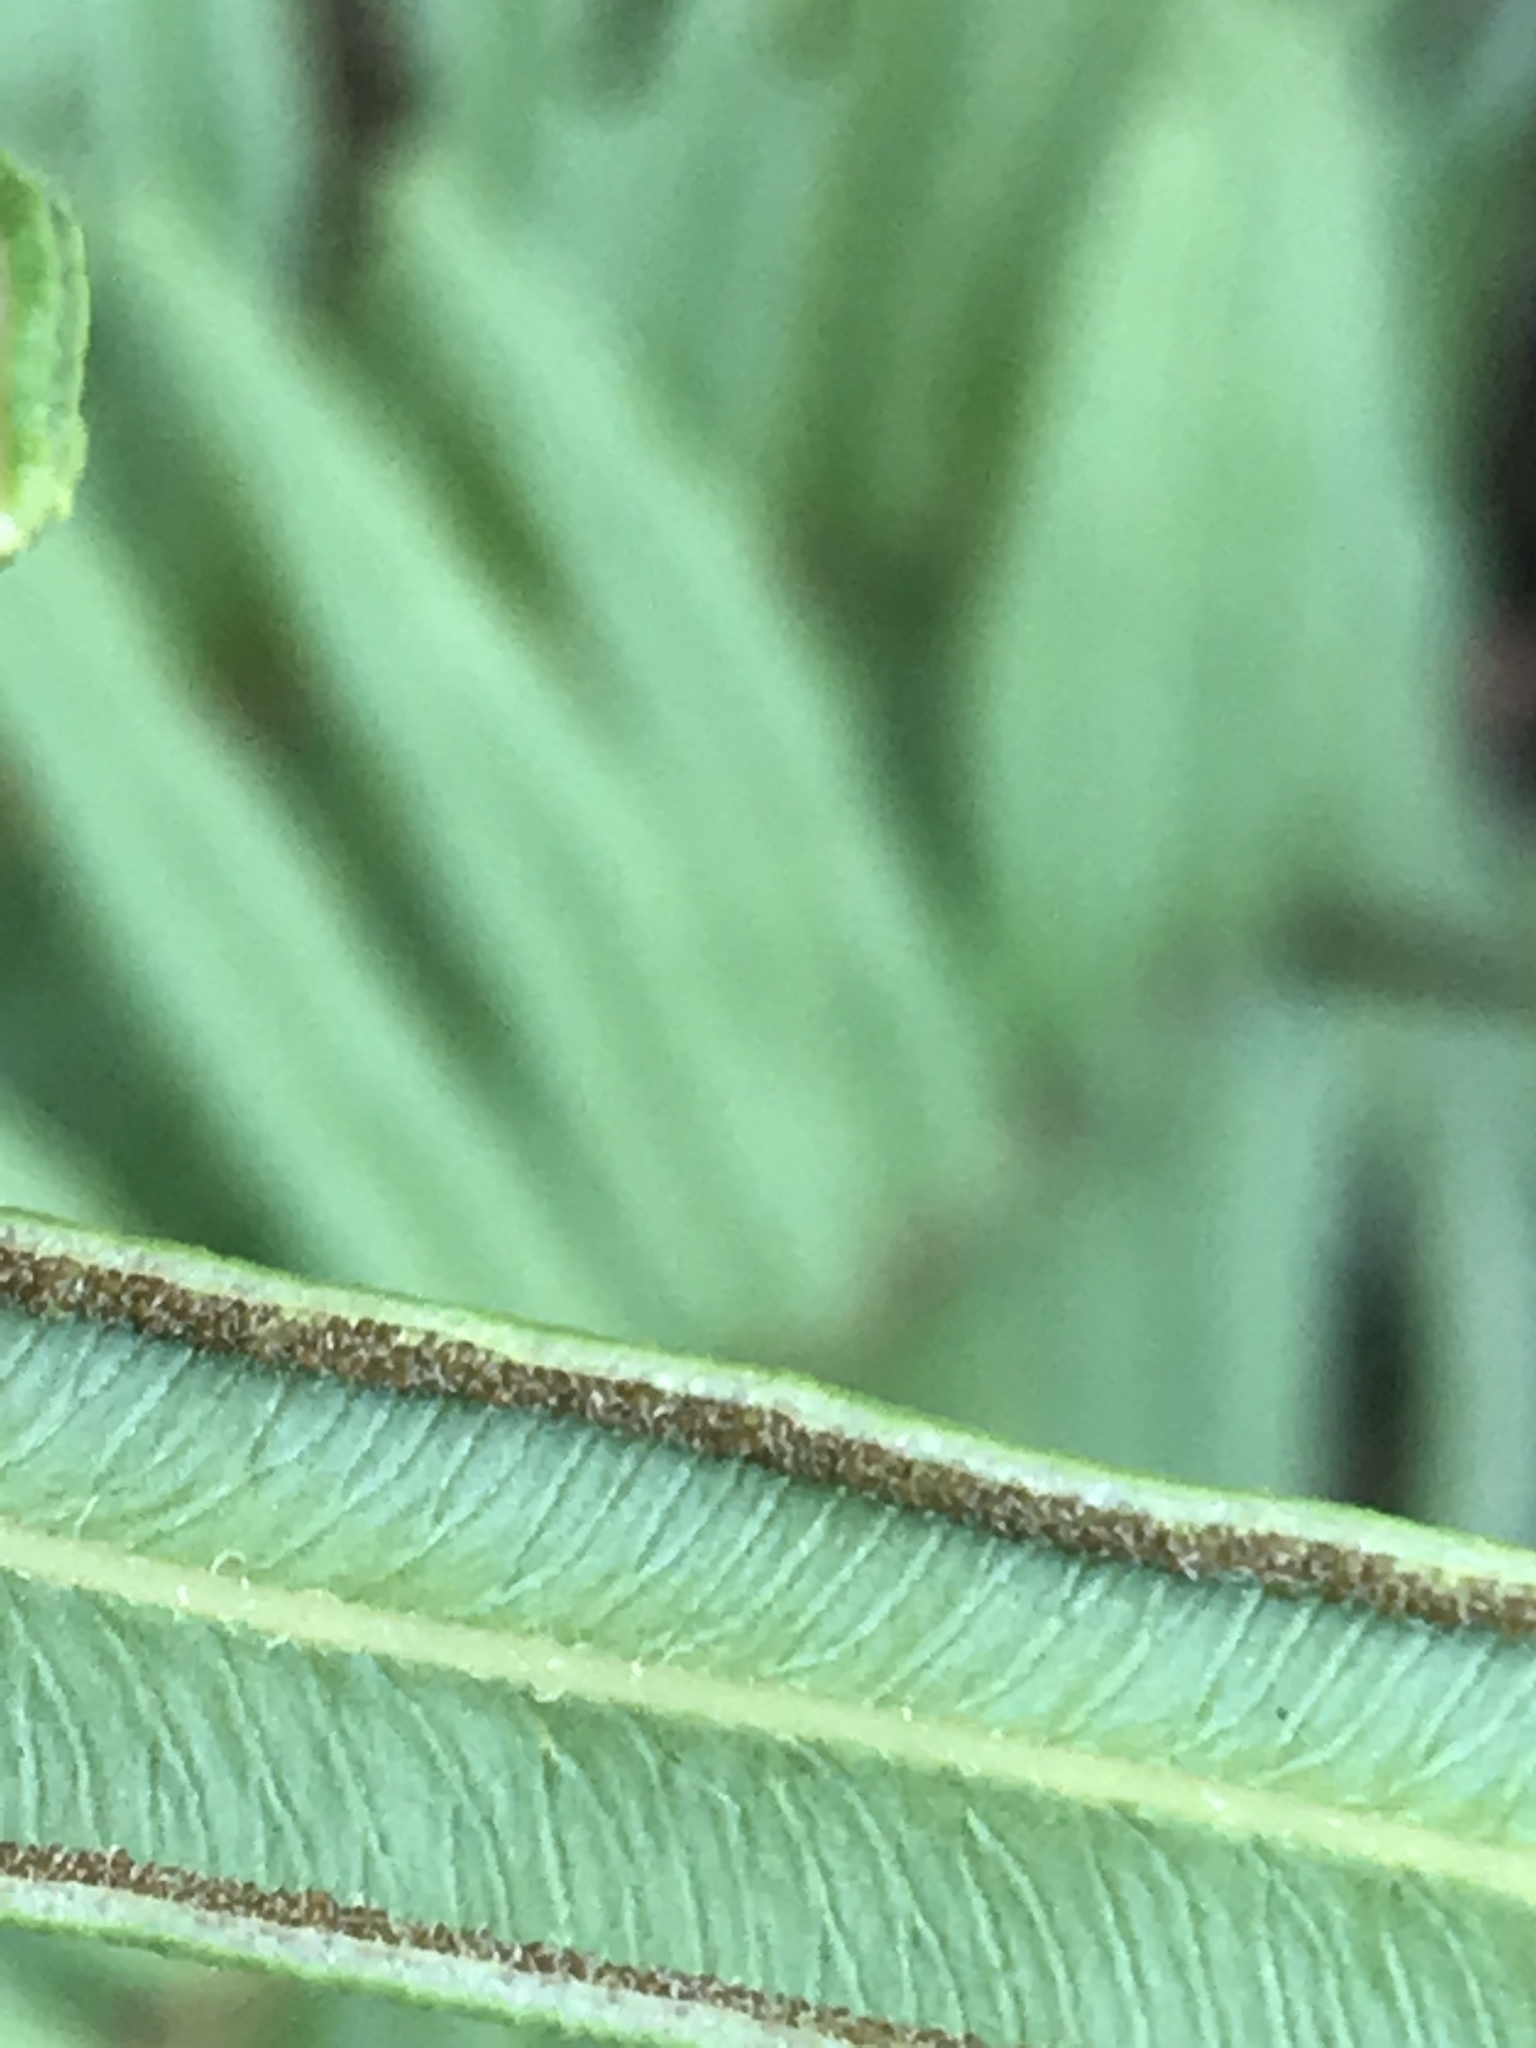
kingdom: Plantae
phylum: Tracheophyta
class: Polypodiopsida
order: Polypodiales
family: Pteridaceae
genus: Pteris
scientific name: Pteris vittata
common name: Ladder brake
